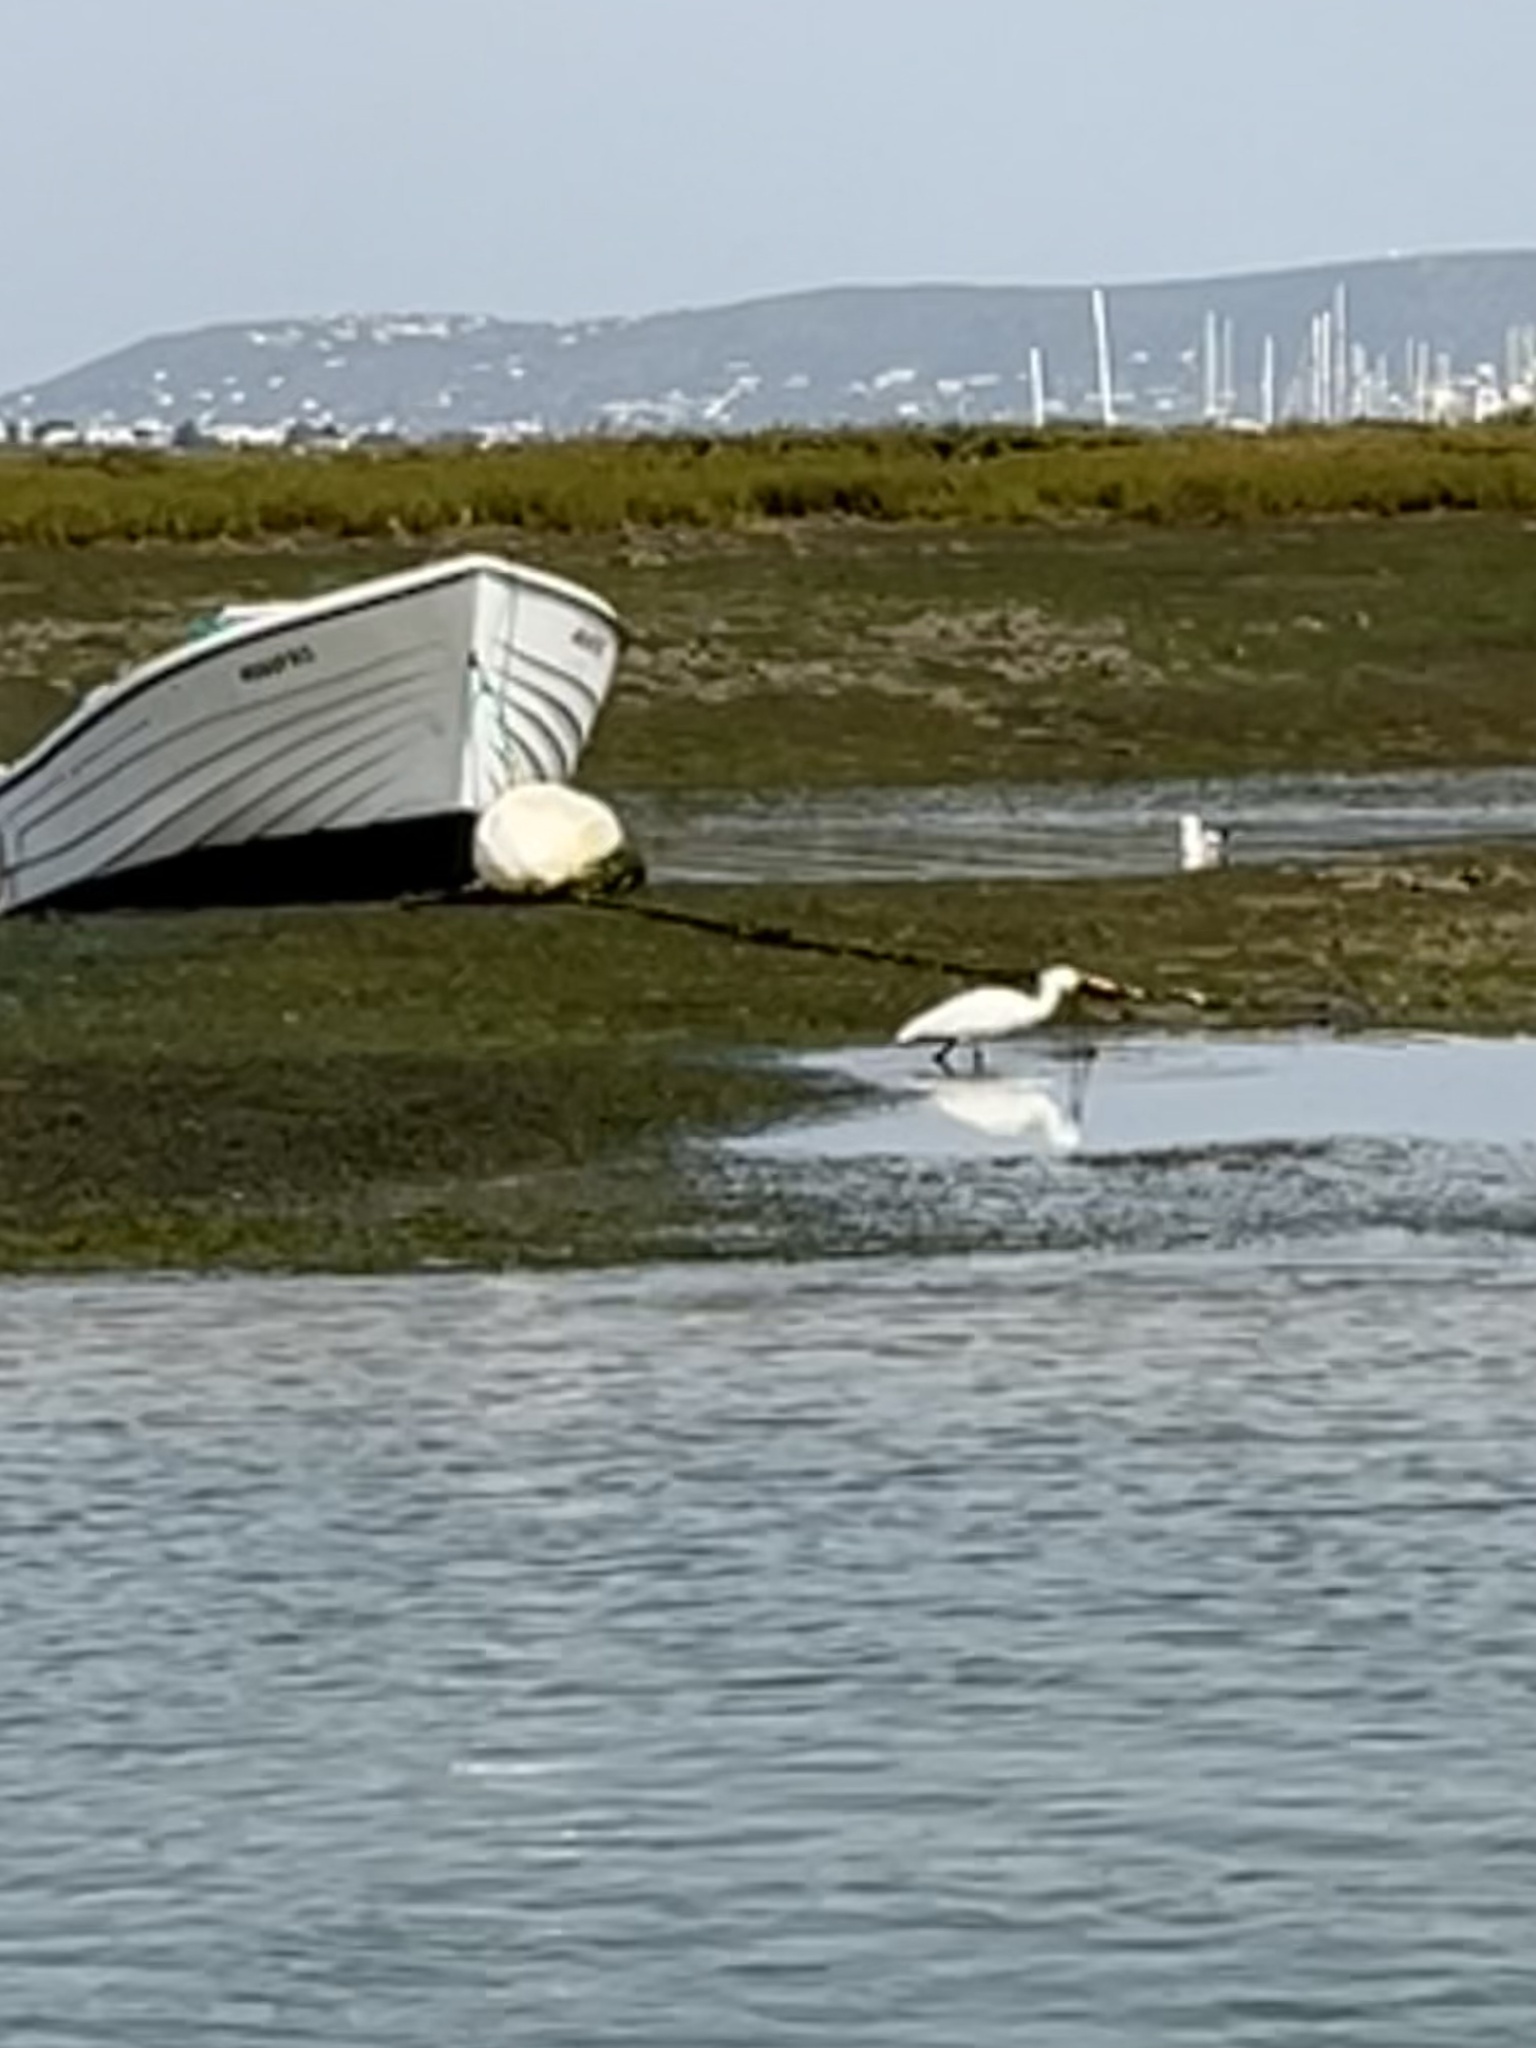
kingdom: Animalia
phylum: Chordata
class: Aves
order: Pelecaniformes
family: Threskiornithidae
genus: Platalea
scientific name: Platalea leucorodia
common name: Eurasian spoonbill
